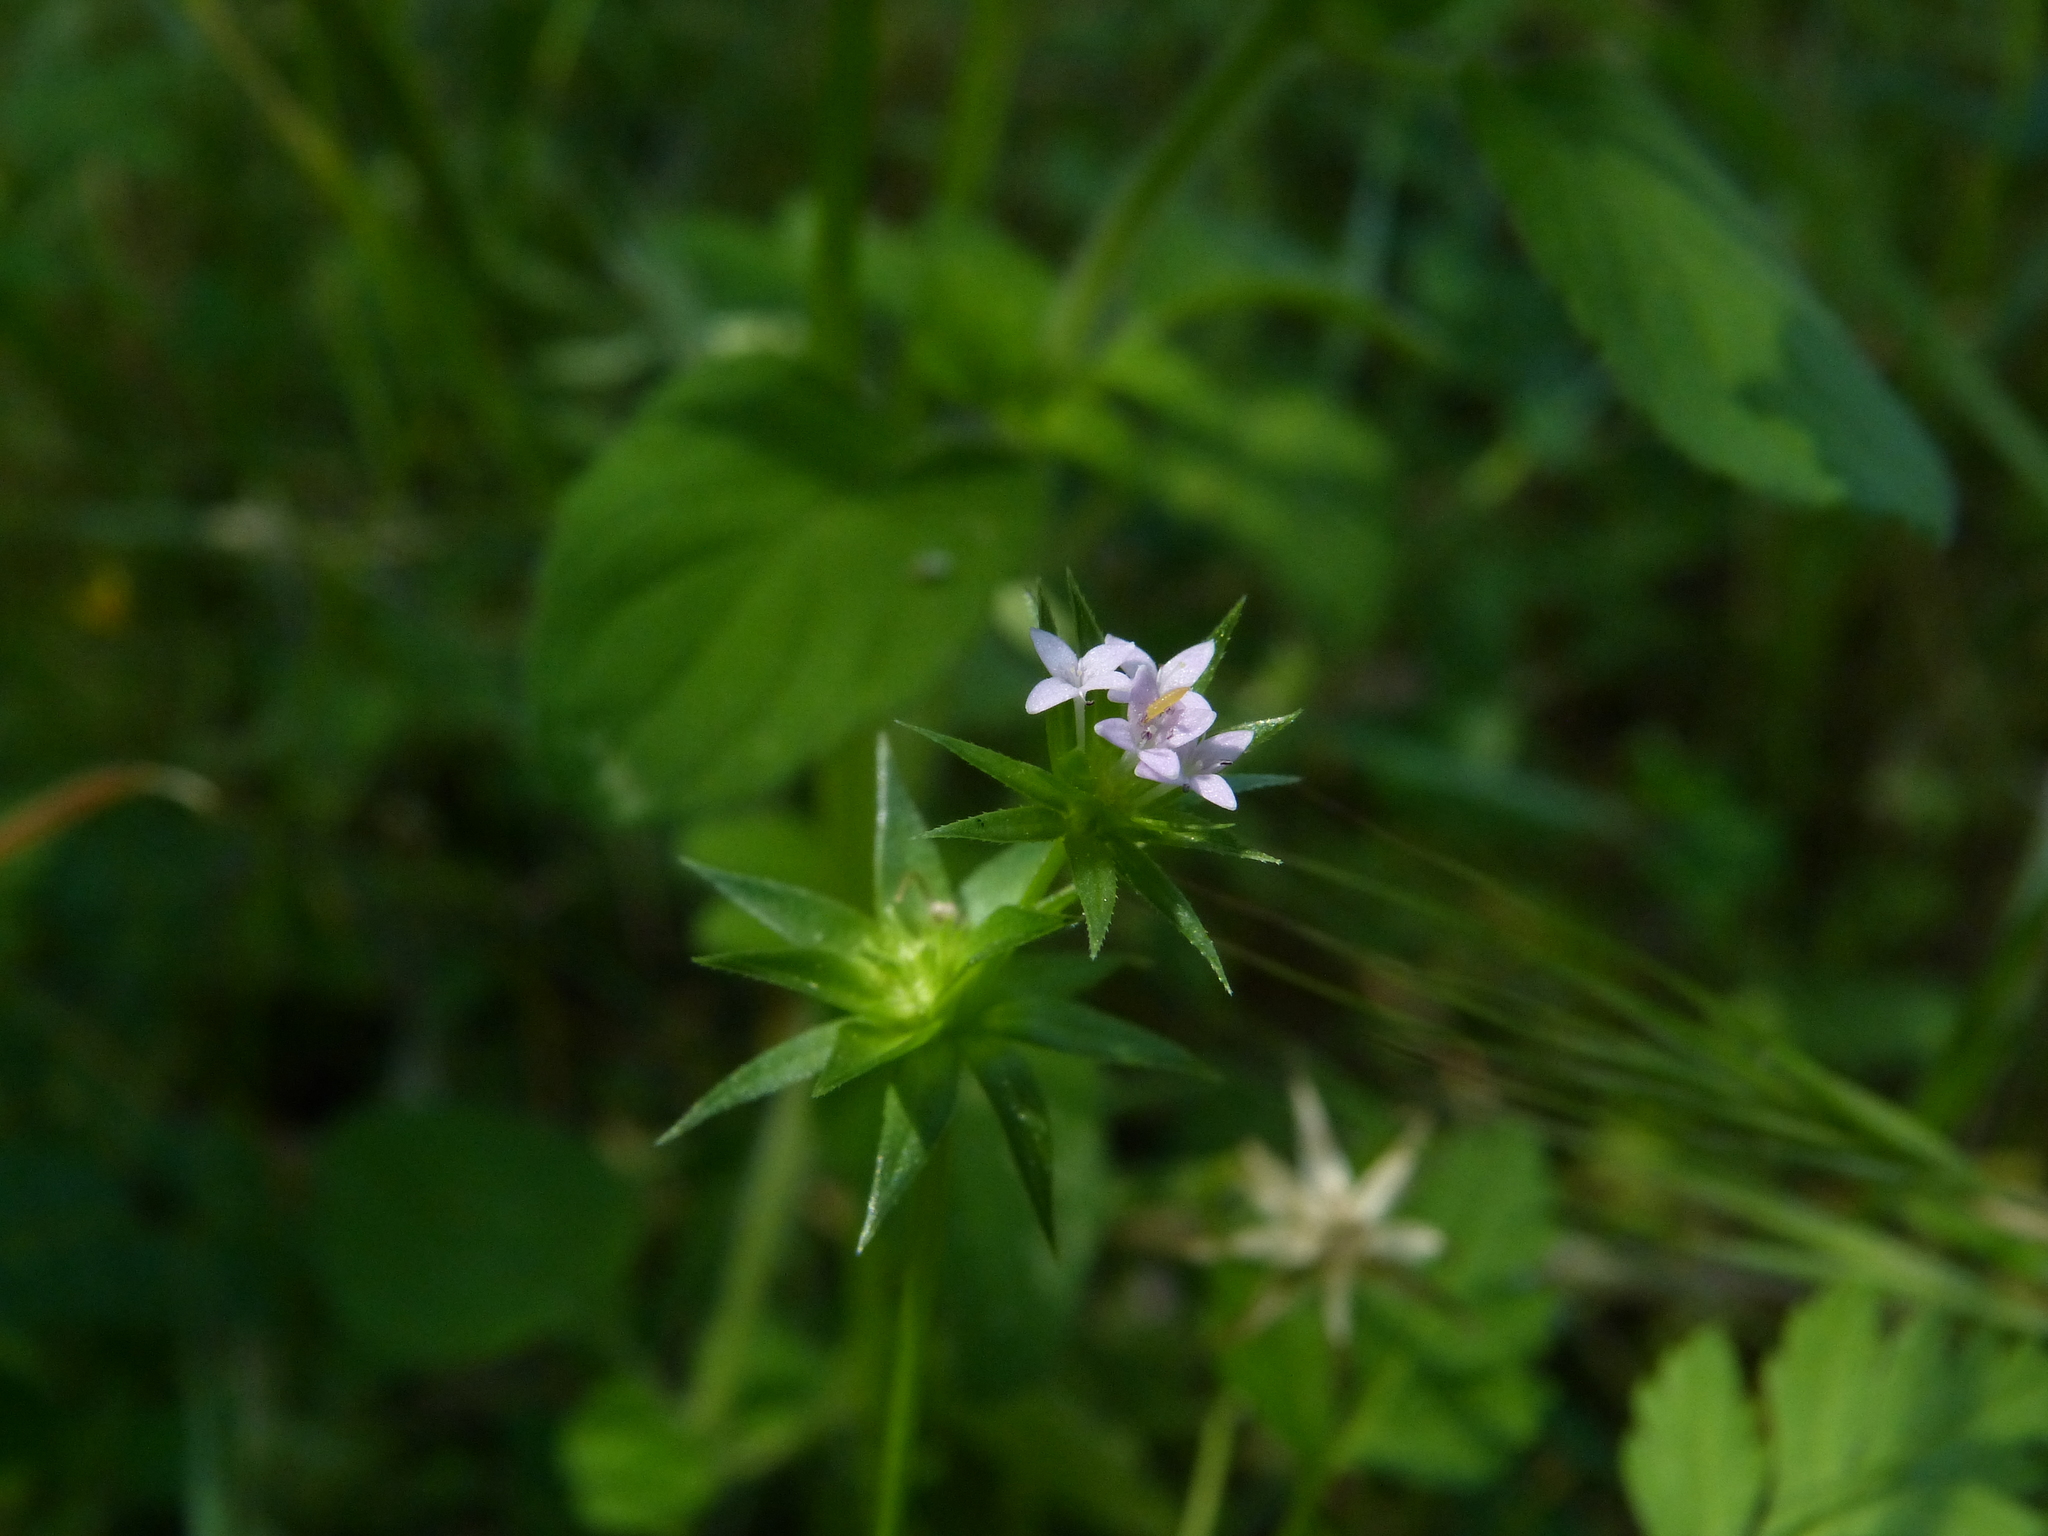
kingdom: Plantae
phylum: Tracheophyta
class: Magnoliopsida
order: Gentianales
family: Rubiaceae
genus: Sherardia
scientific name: Sherardia arvensis
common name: Field madder
